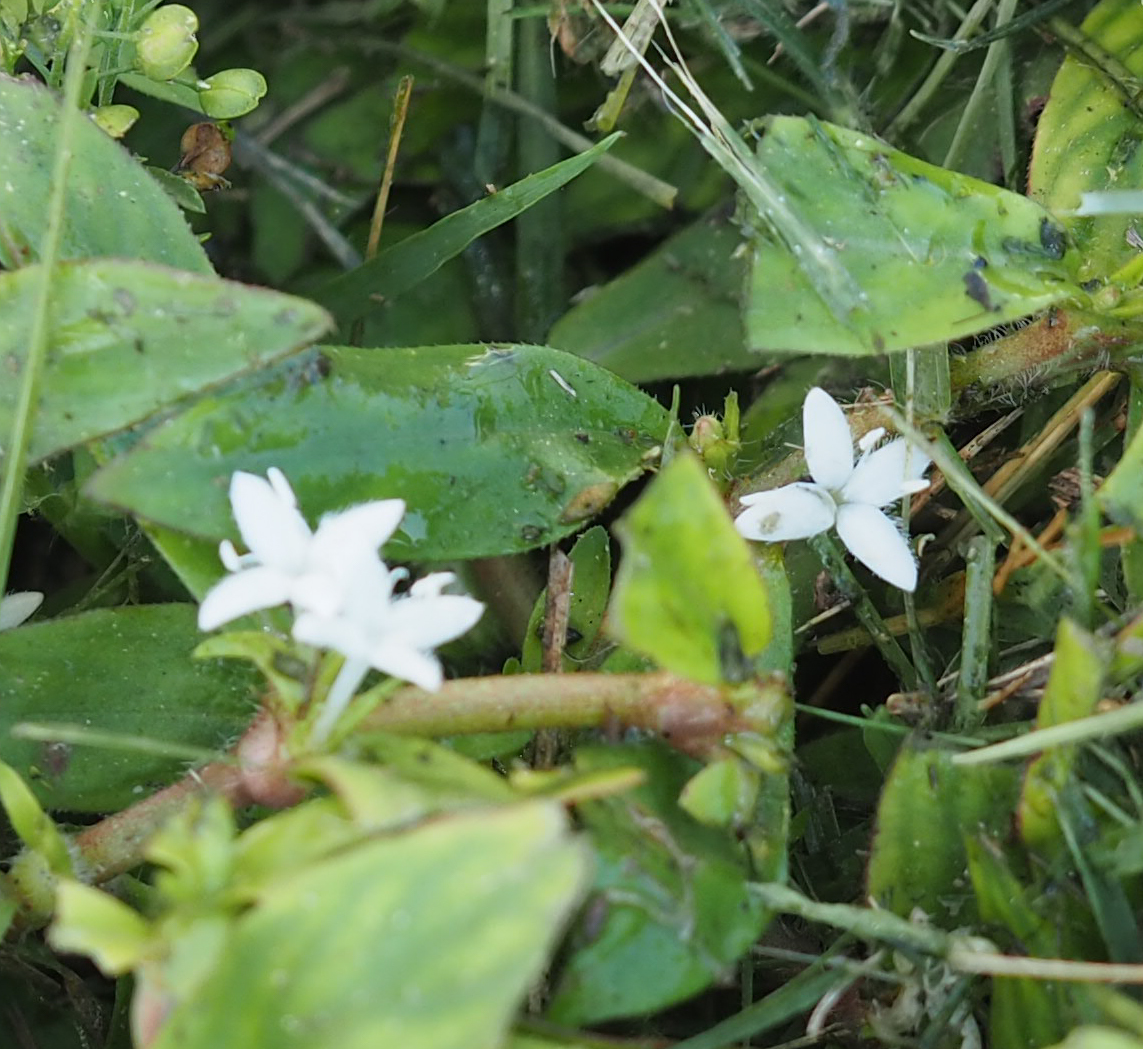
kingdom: Plantae
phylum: Tracheophyta
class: Magnoliopsida
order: Gentianales
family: Rubiaceae
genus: Diodia
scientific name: Diodia virginiana
